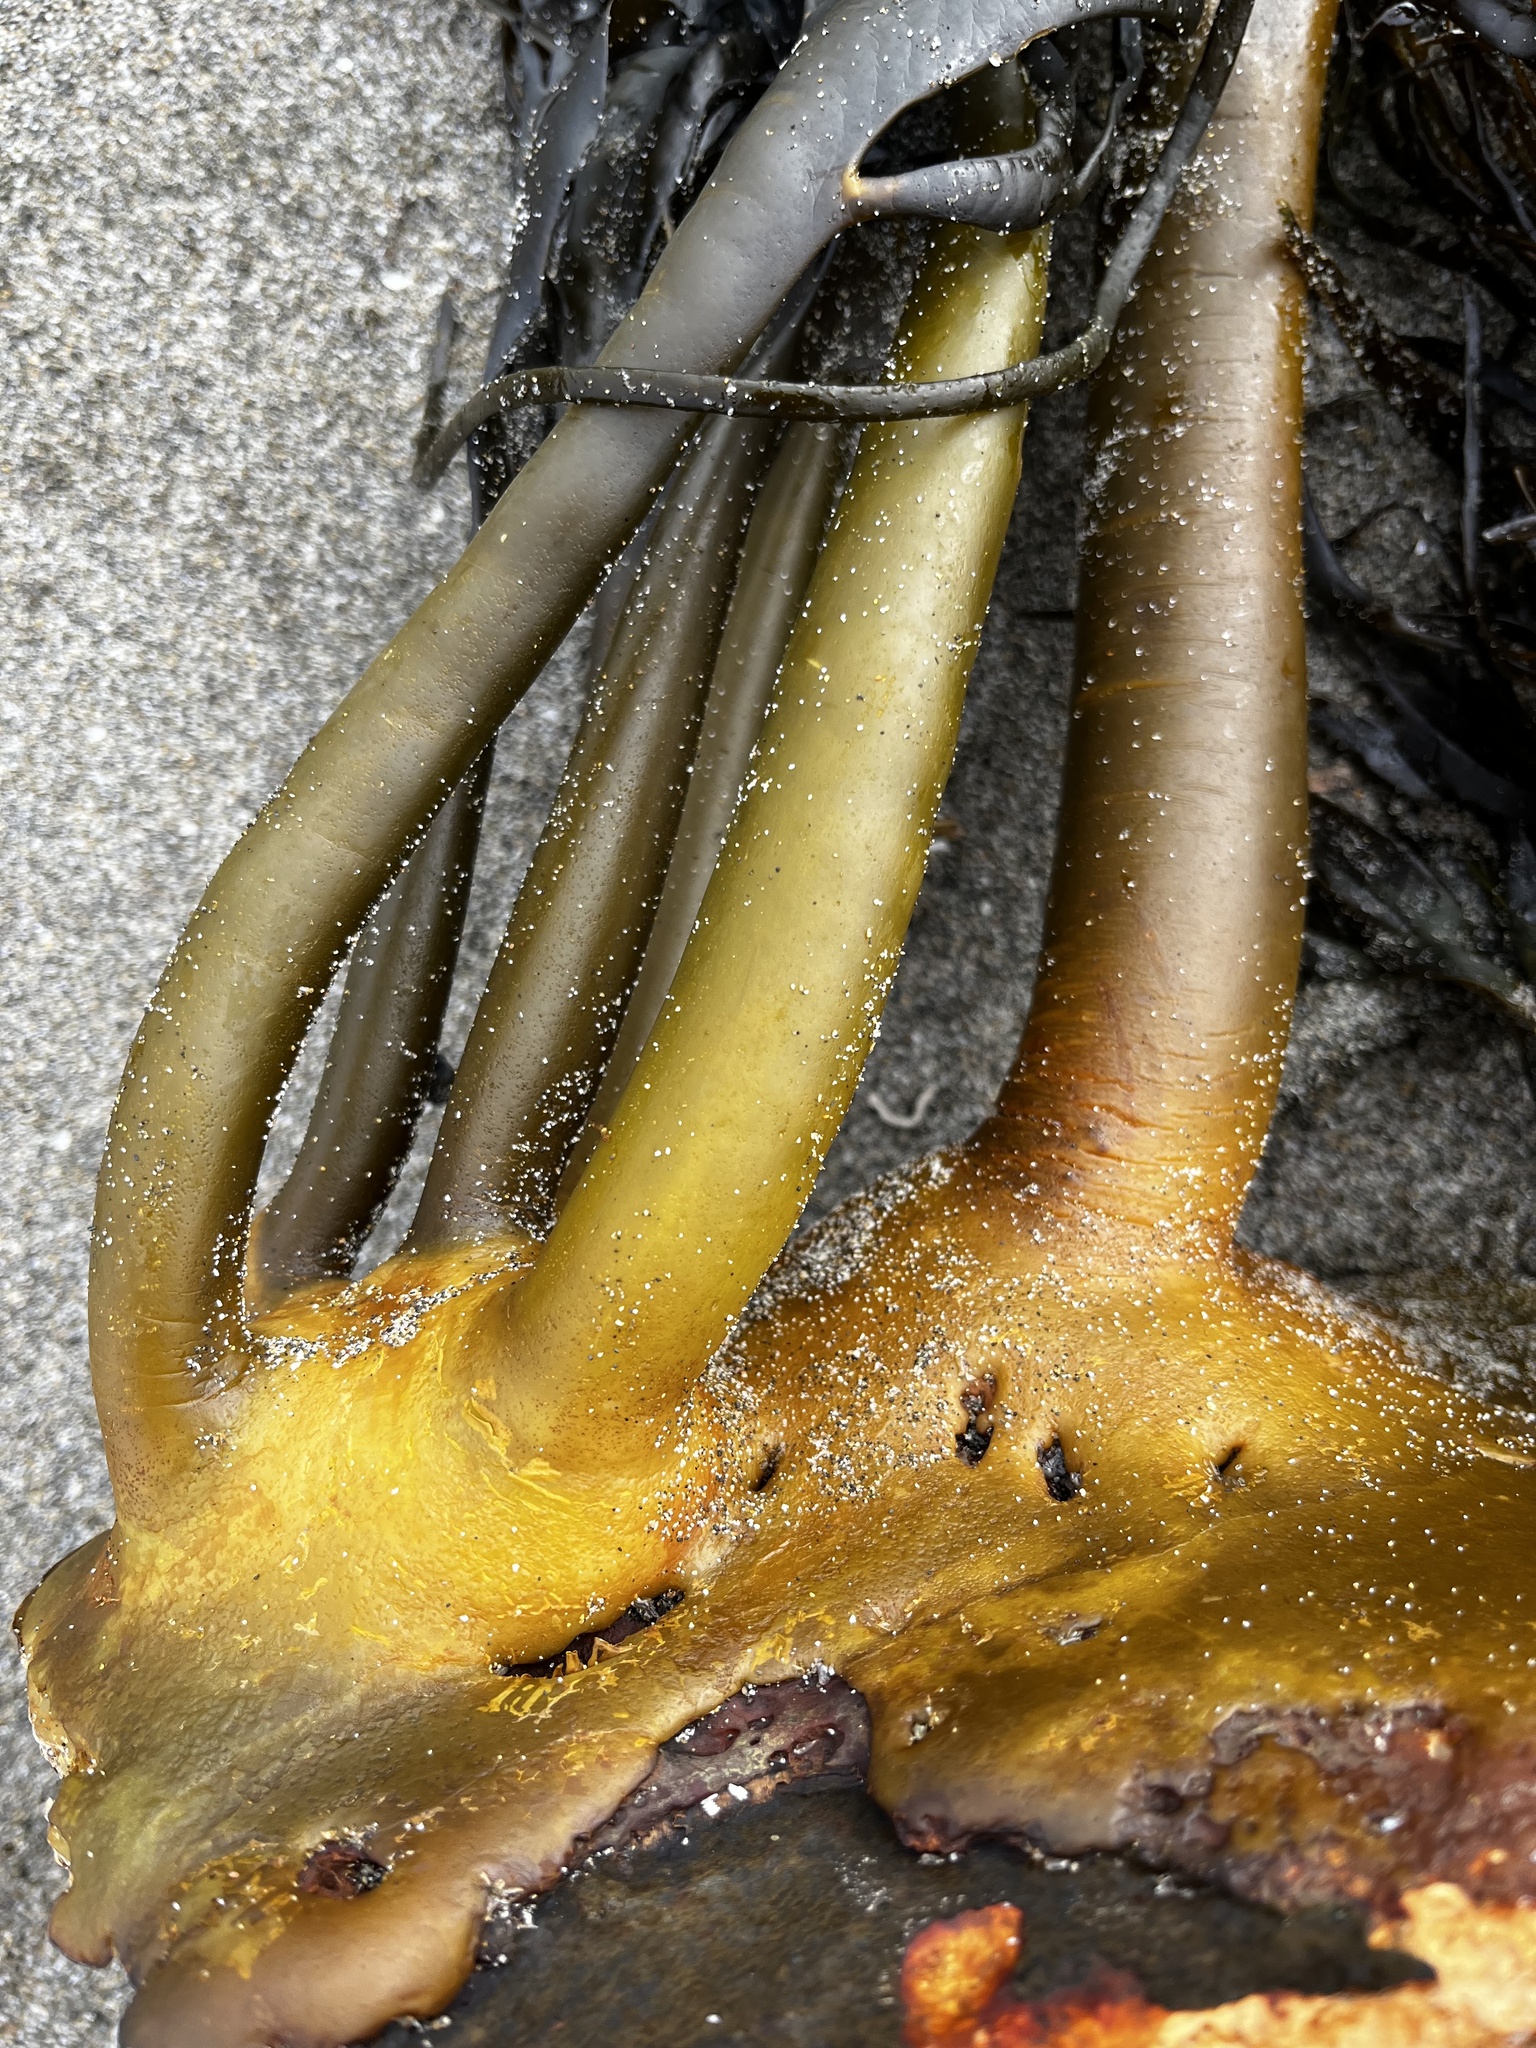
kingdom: Chromista
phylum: Ochrophyta
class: Phaeophyceae
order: Fucales
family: Durvillaeaceae
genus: Durvillaea
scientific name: Durvillaea
